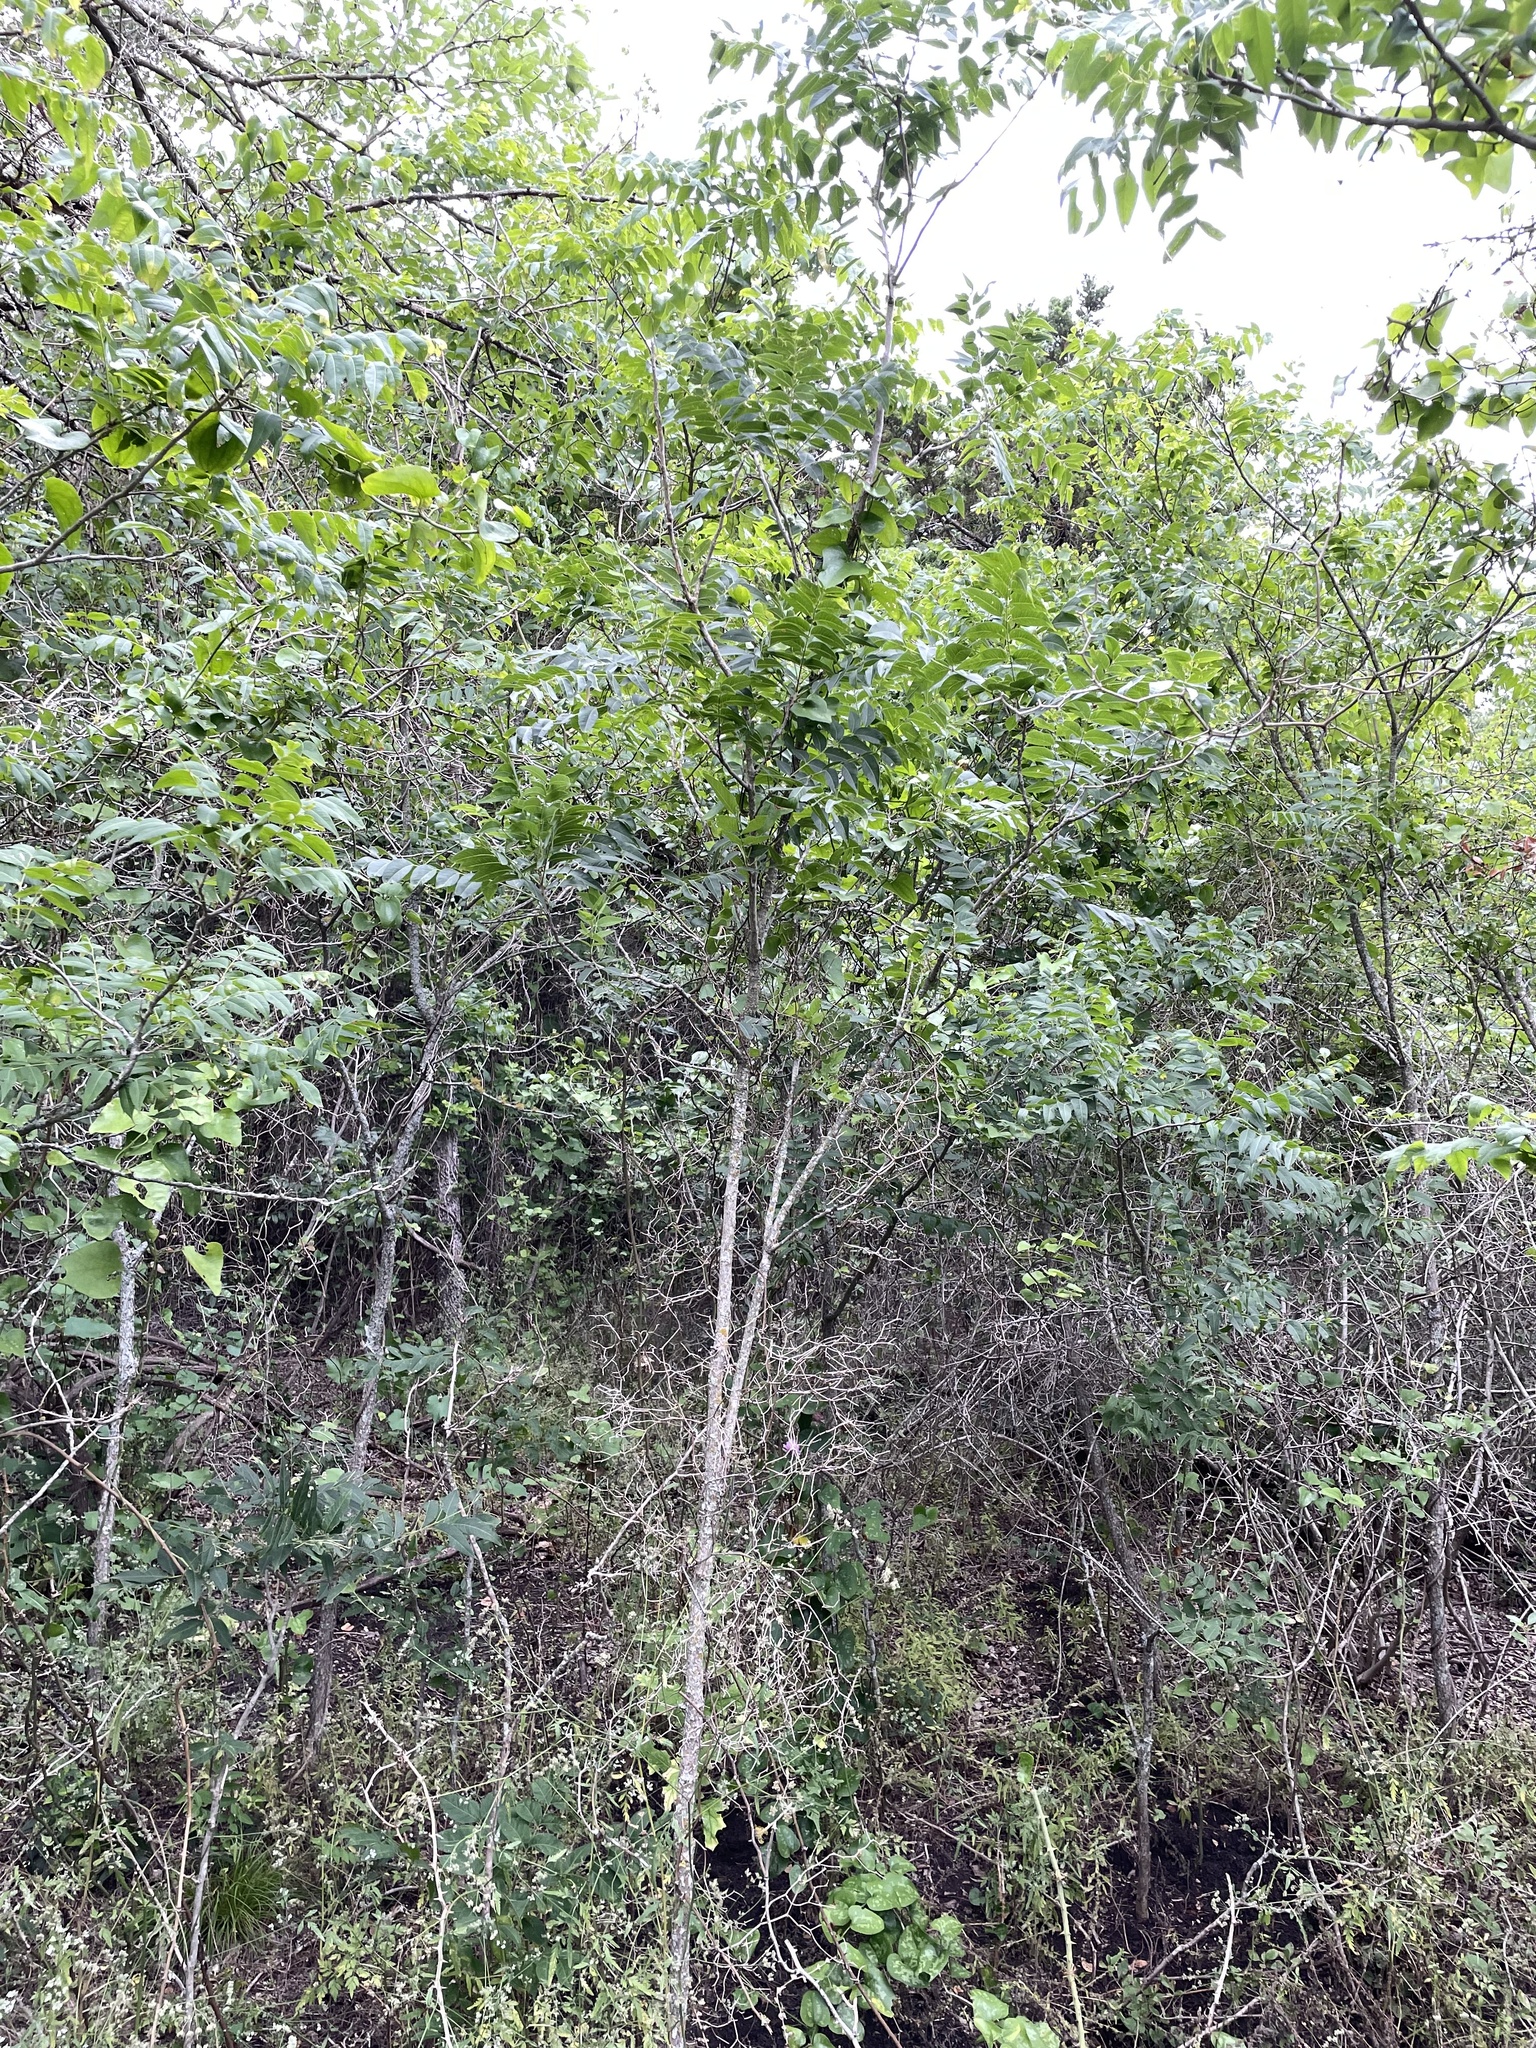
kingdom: Plantae
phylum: Tracheophyta
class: Magnoliopsida
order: Sapindales
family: Sapindaceae
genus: Sapindus
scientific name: Sapindus drummondii
